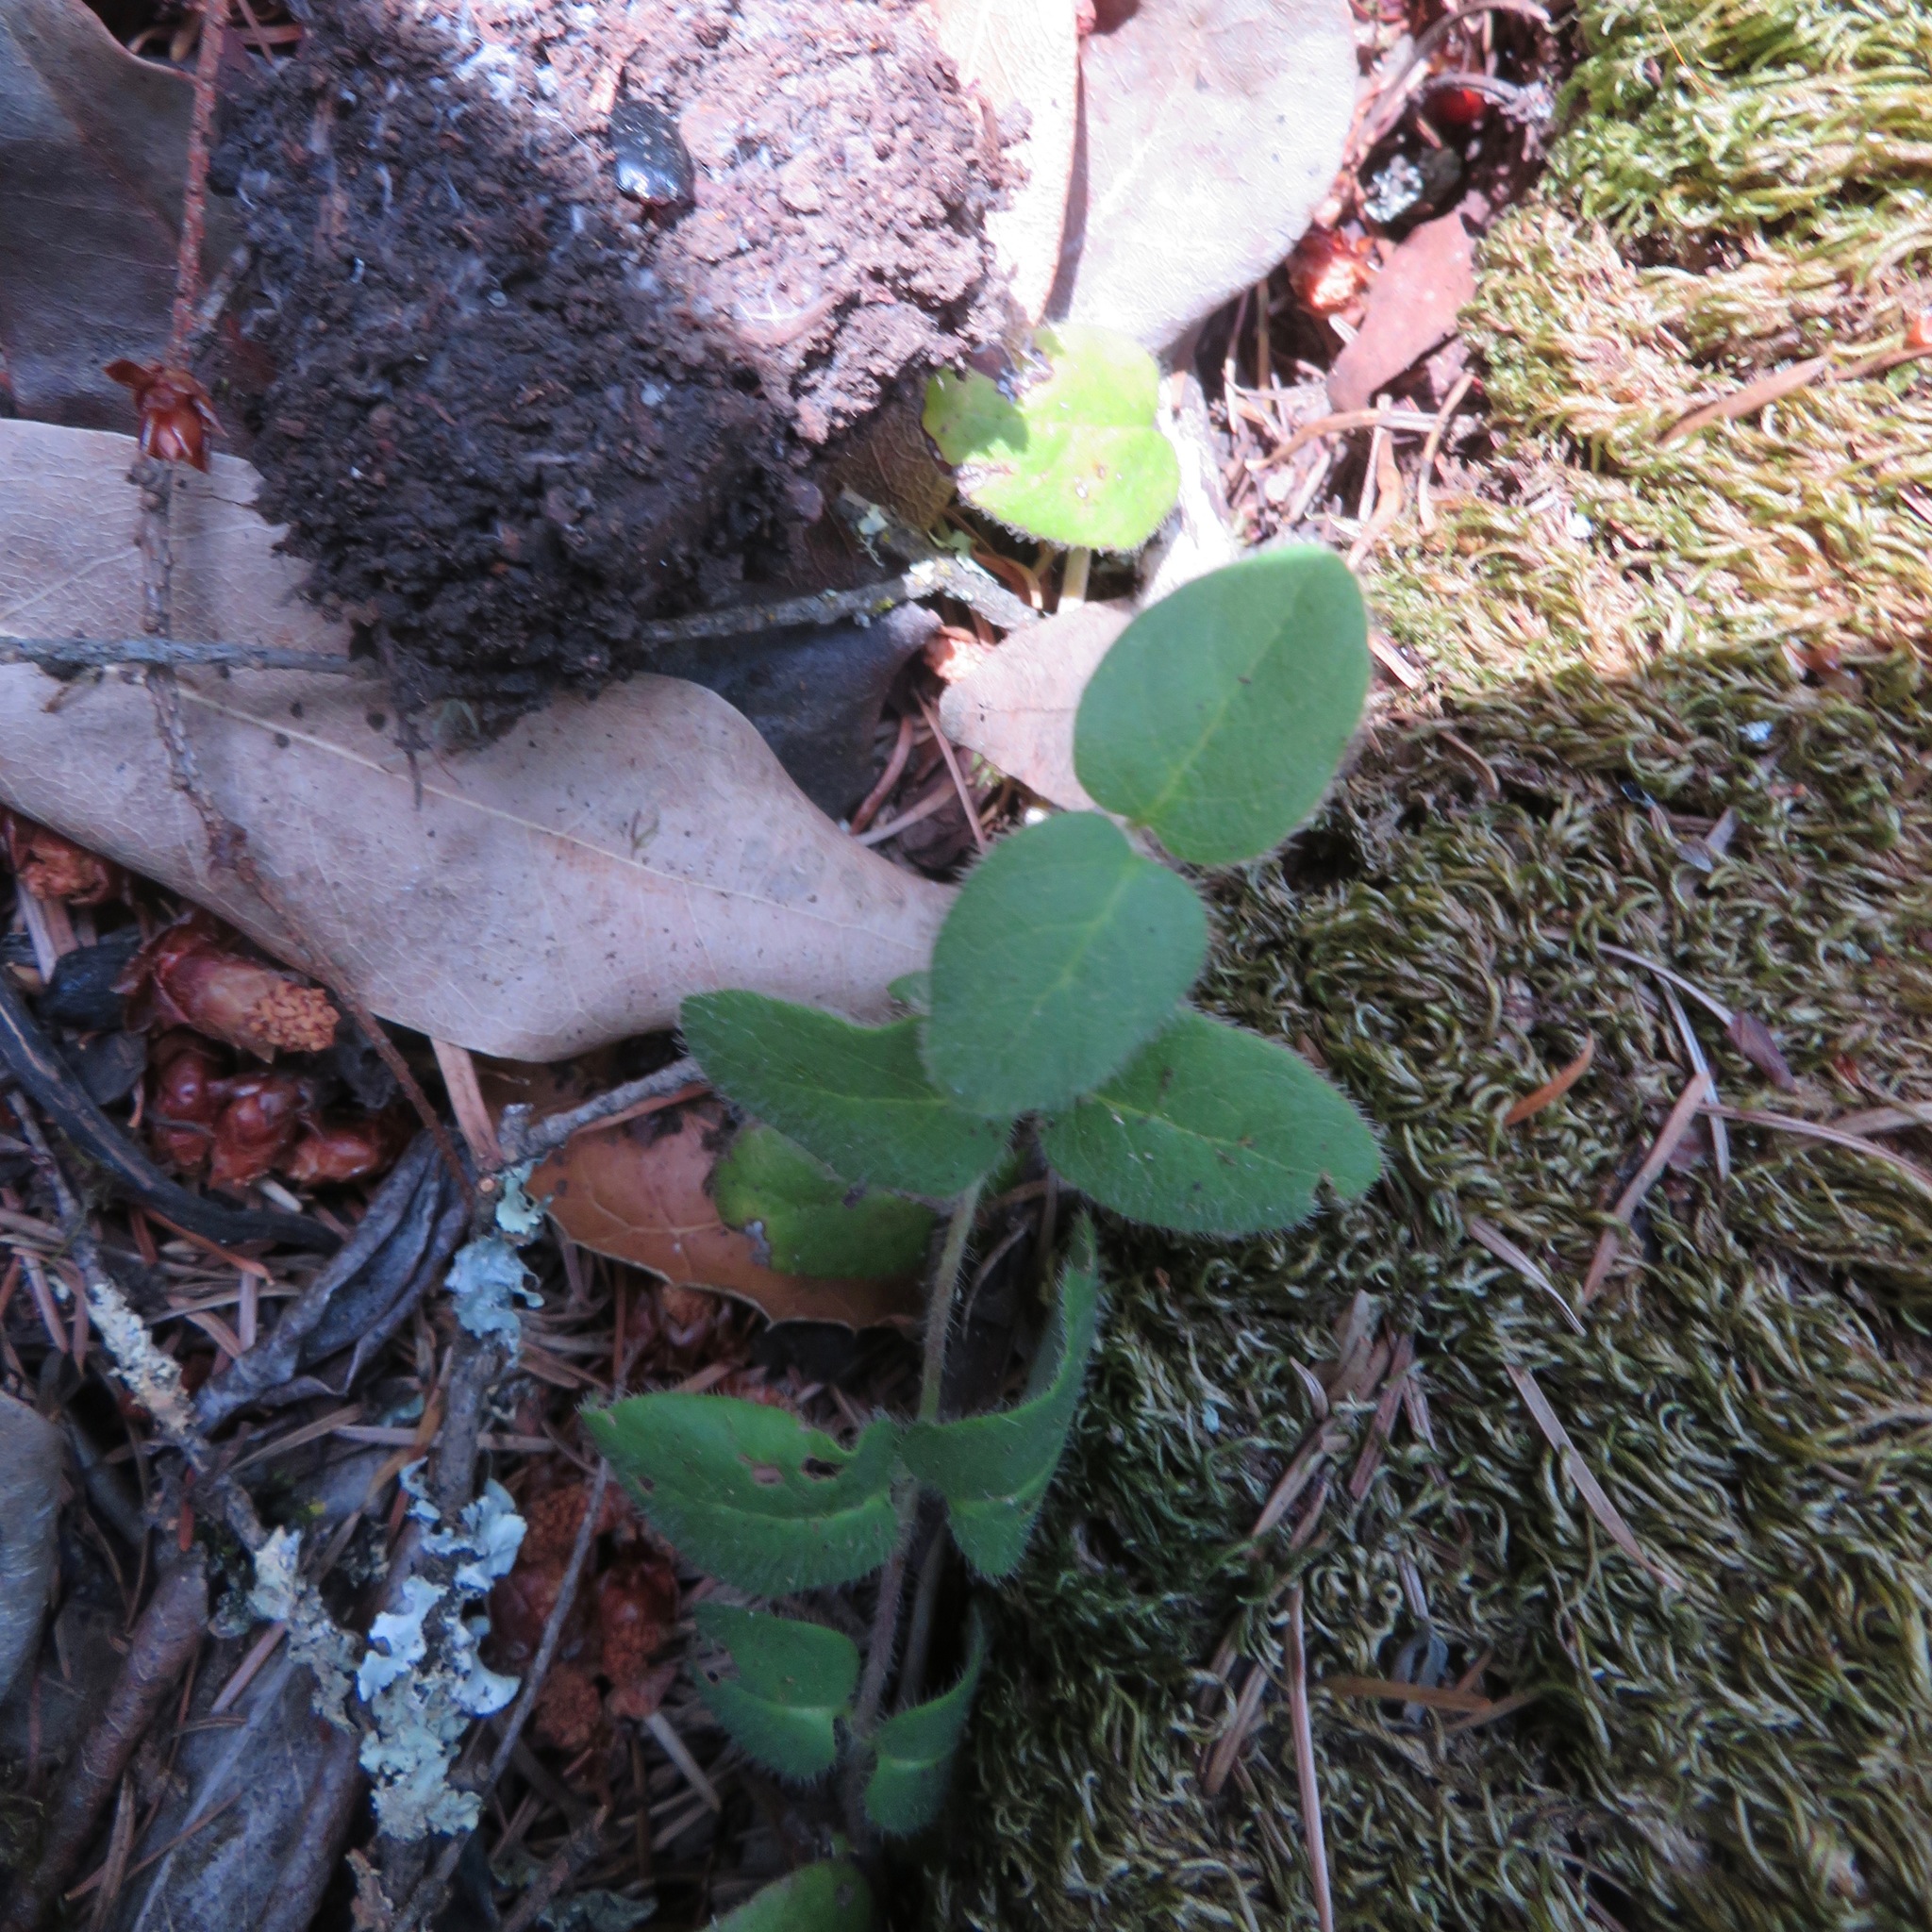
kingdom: Plantae
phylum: Tracheophyta
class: Magnoliopsida
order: Dipsacales
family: Caprifoliaceae
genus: Lonicera
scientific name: Lonicera hispidula
